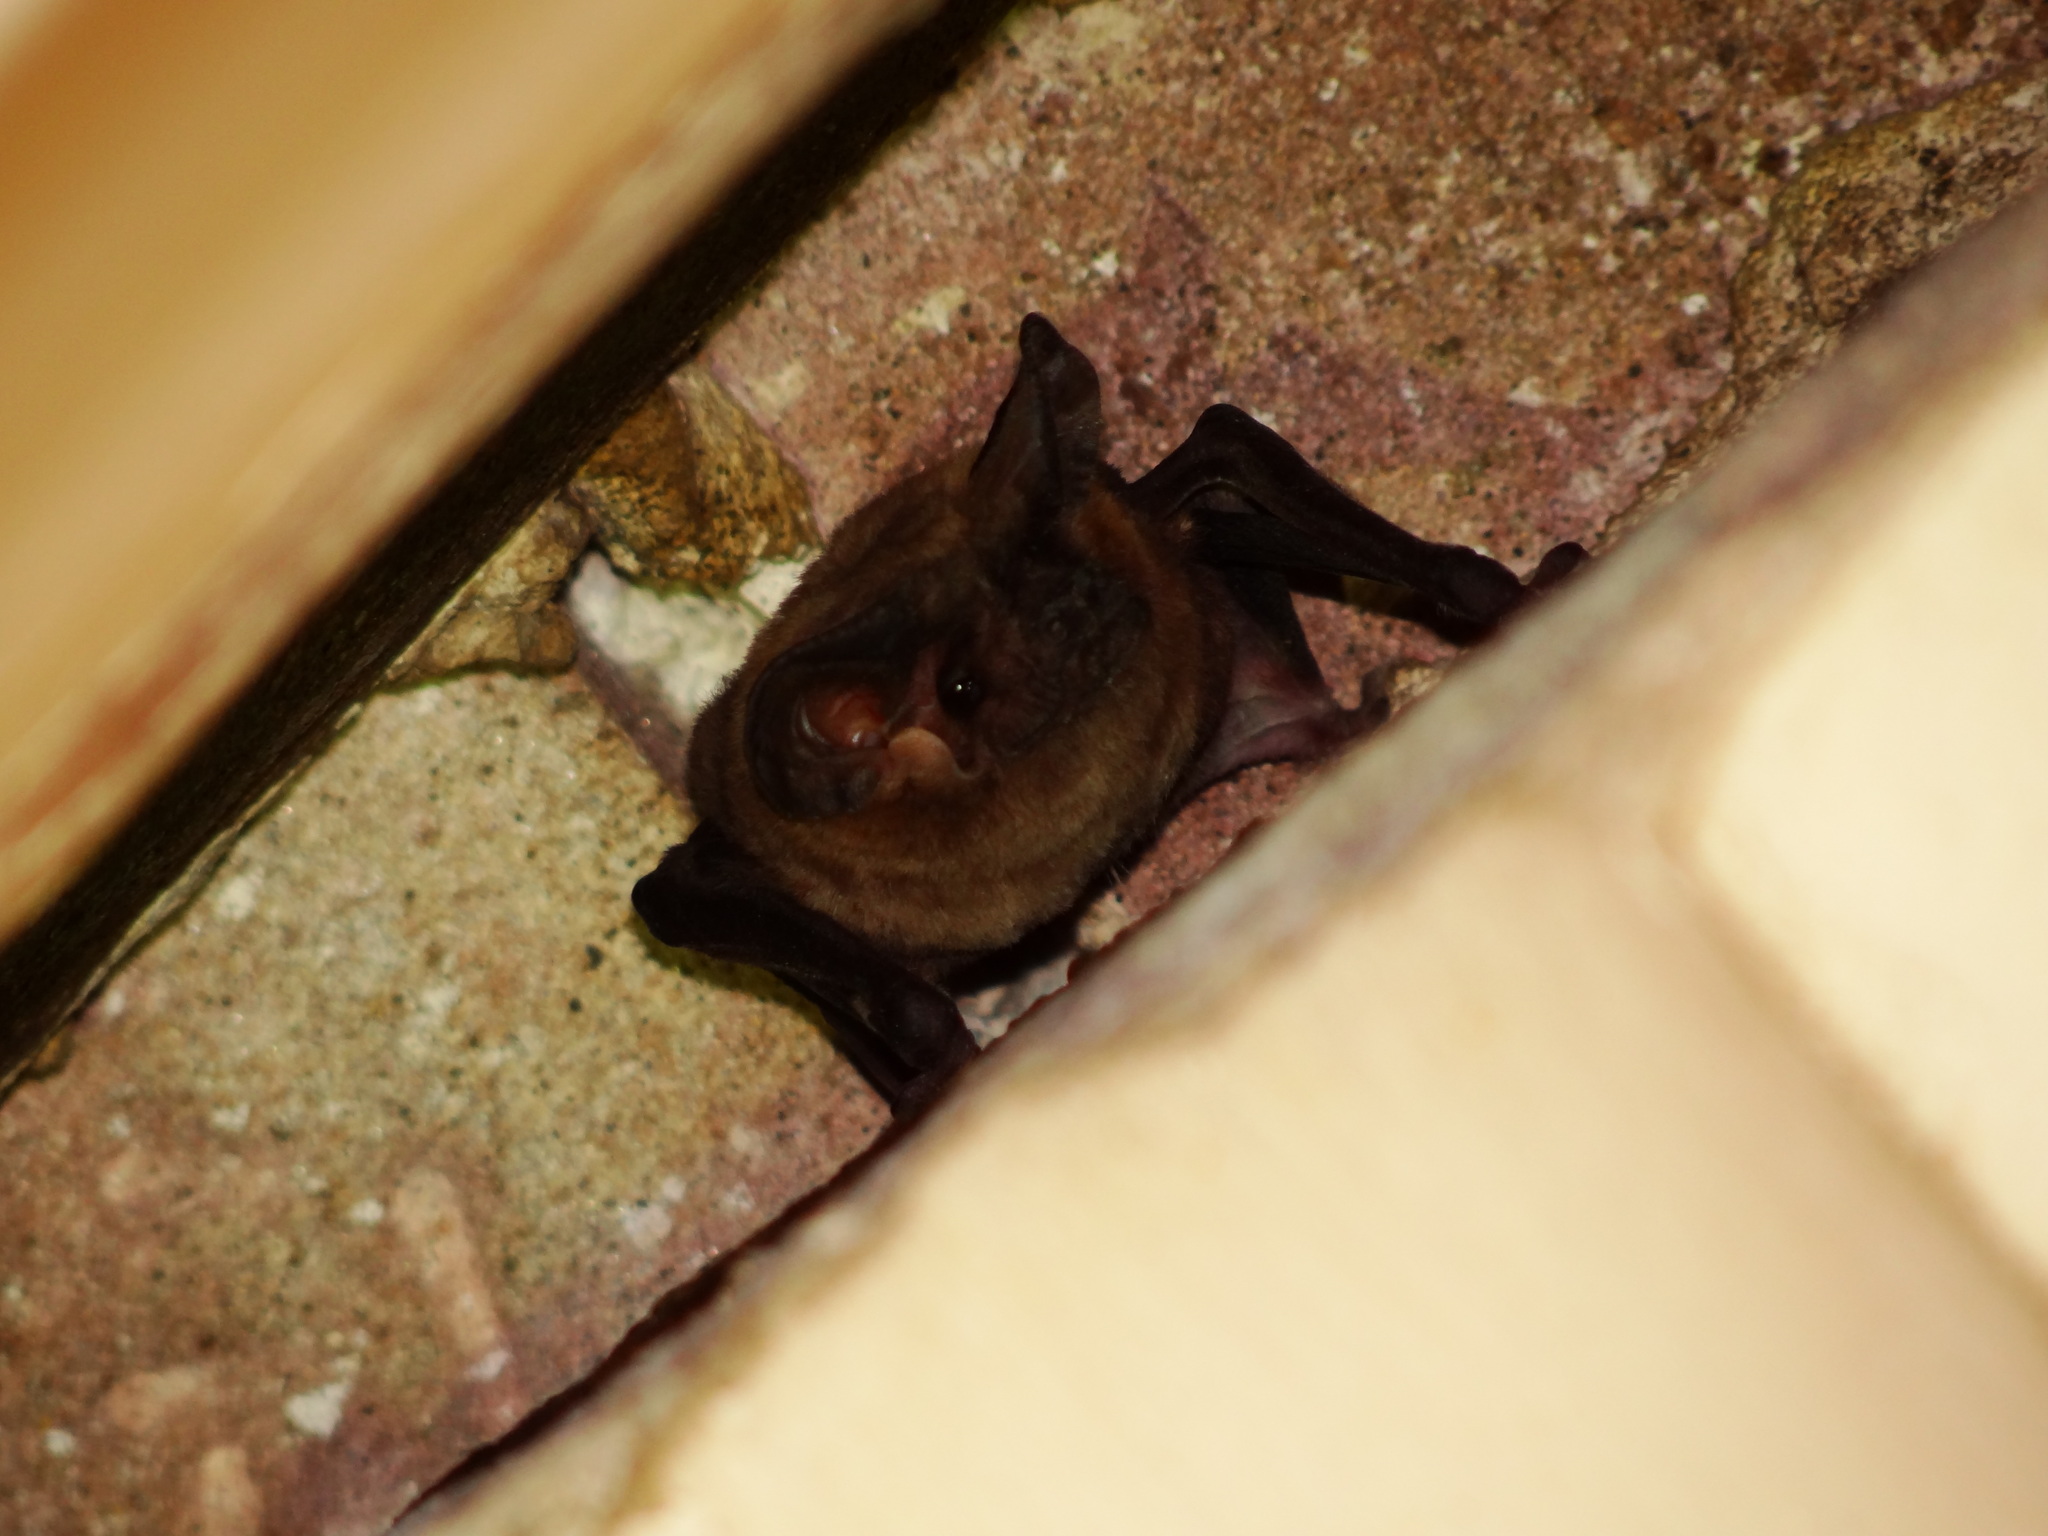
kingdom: Animalia
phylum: Chordata
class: Mammalia
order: Chiroptera
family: Molossidae
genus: Tadarida
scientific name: Tadarida aegyptiaca
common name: Egyptian free-tailed bat
